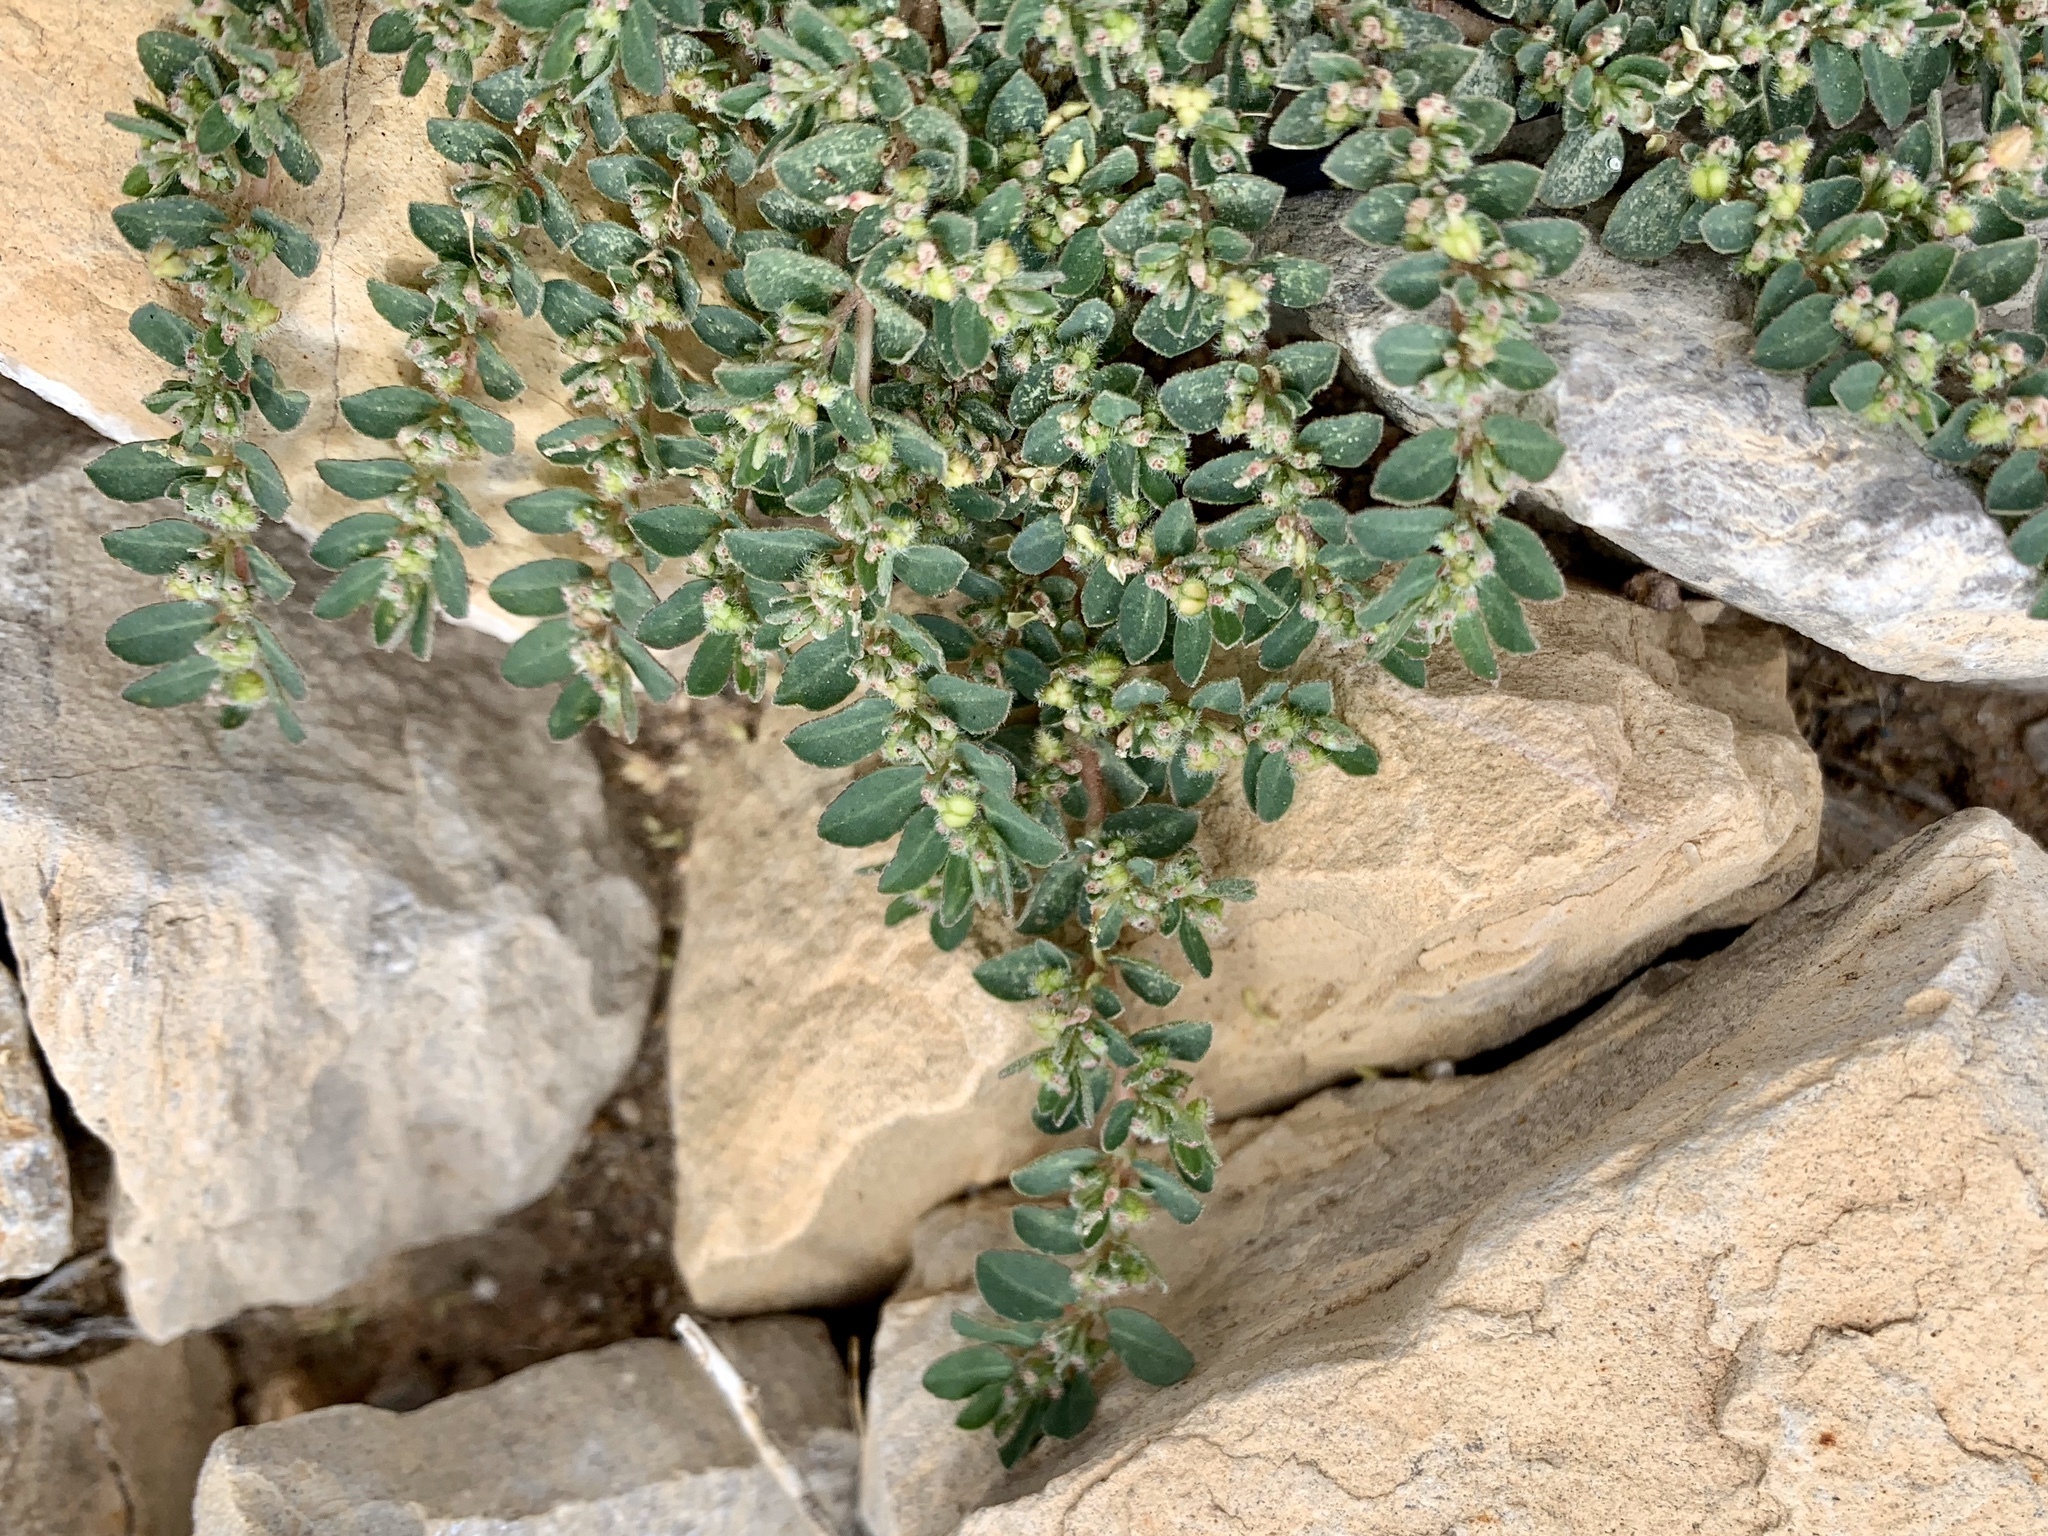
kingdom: Plantae
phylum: Tracheophyta
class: Magnoliopsida
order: Malpighiales
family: Euphorbiaceae
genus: Euphorbia
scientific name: Euphorbia stictospora
